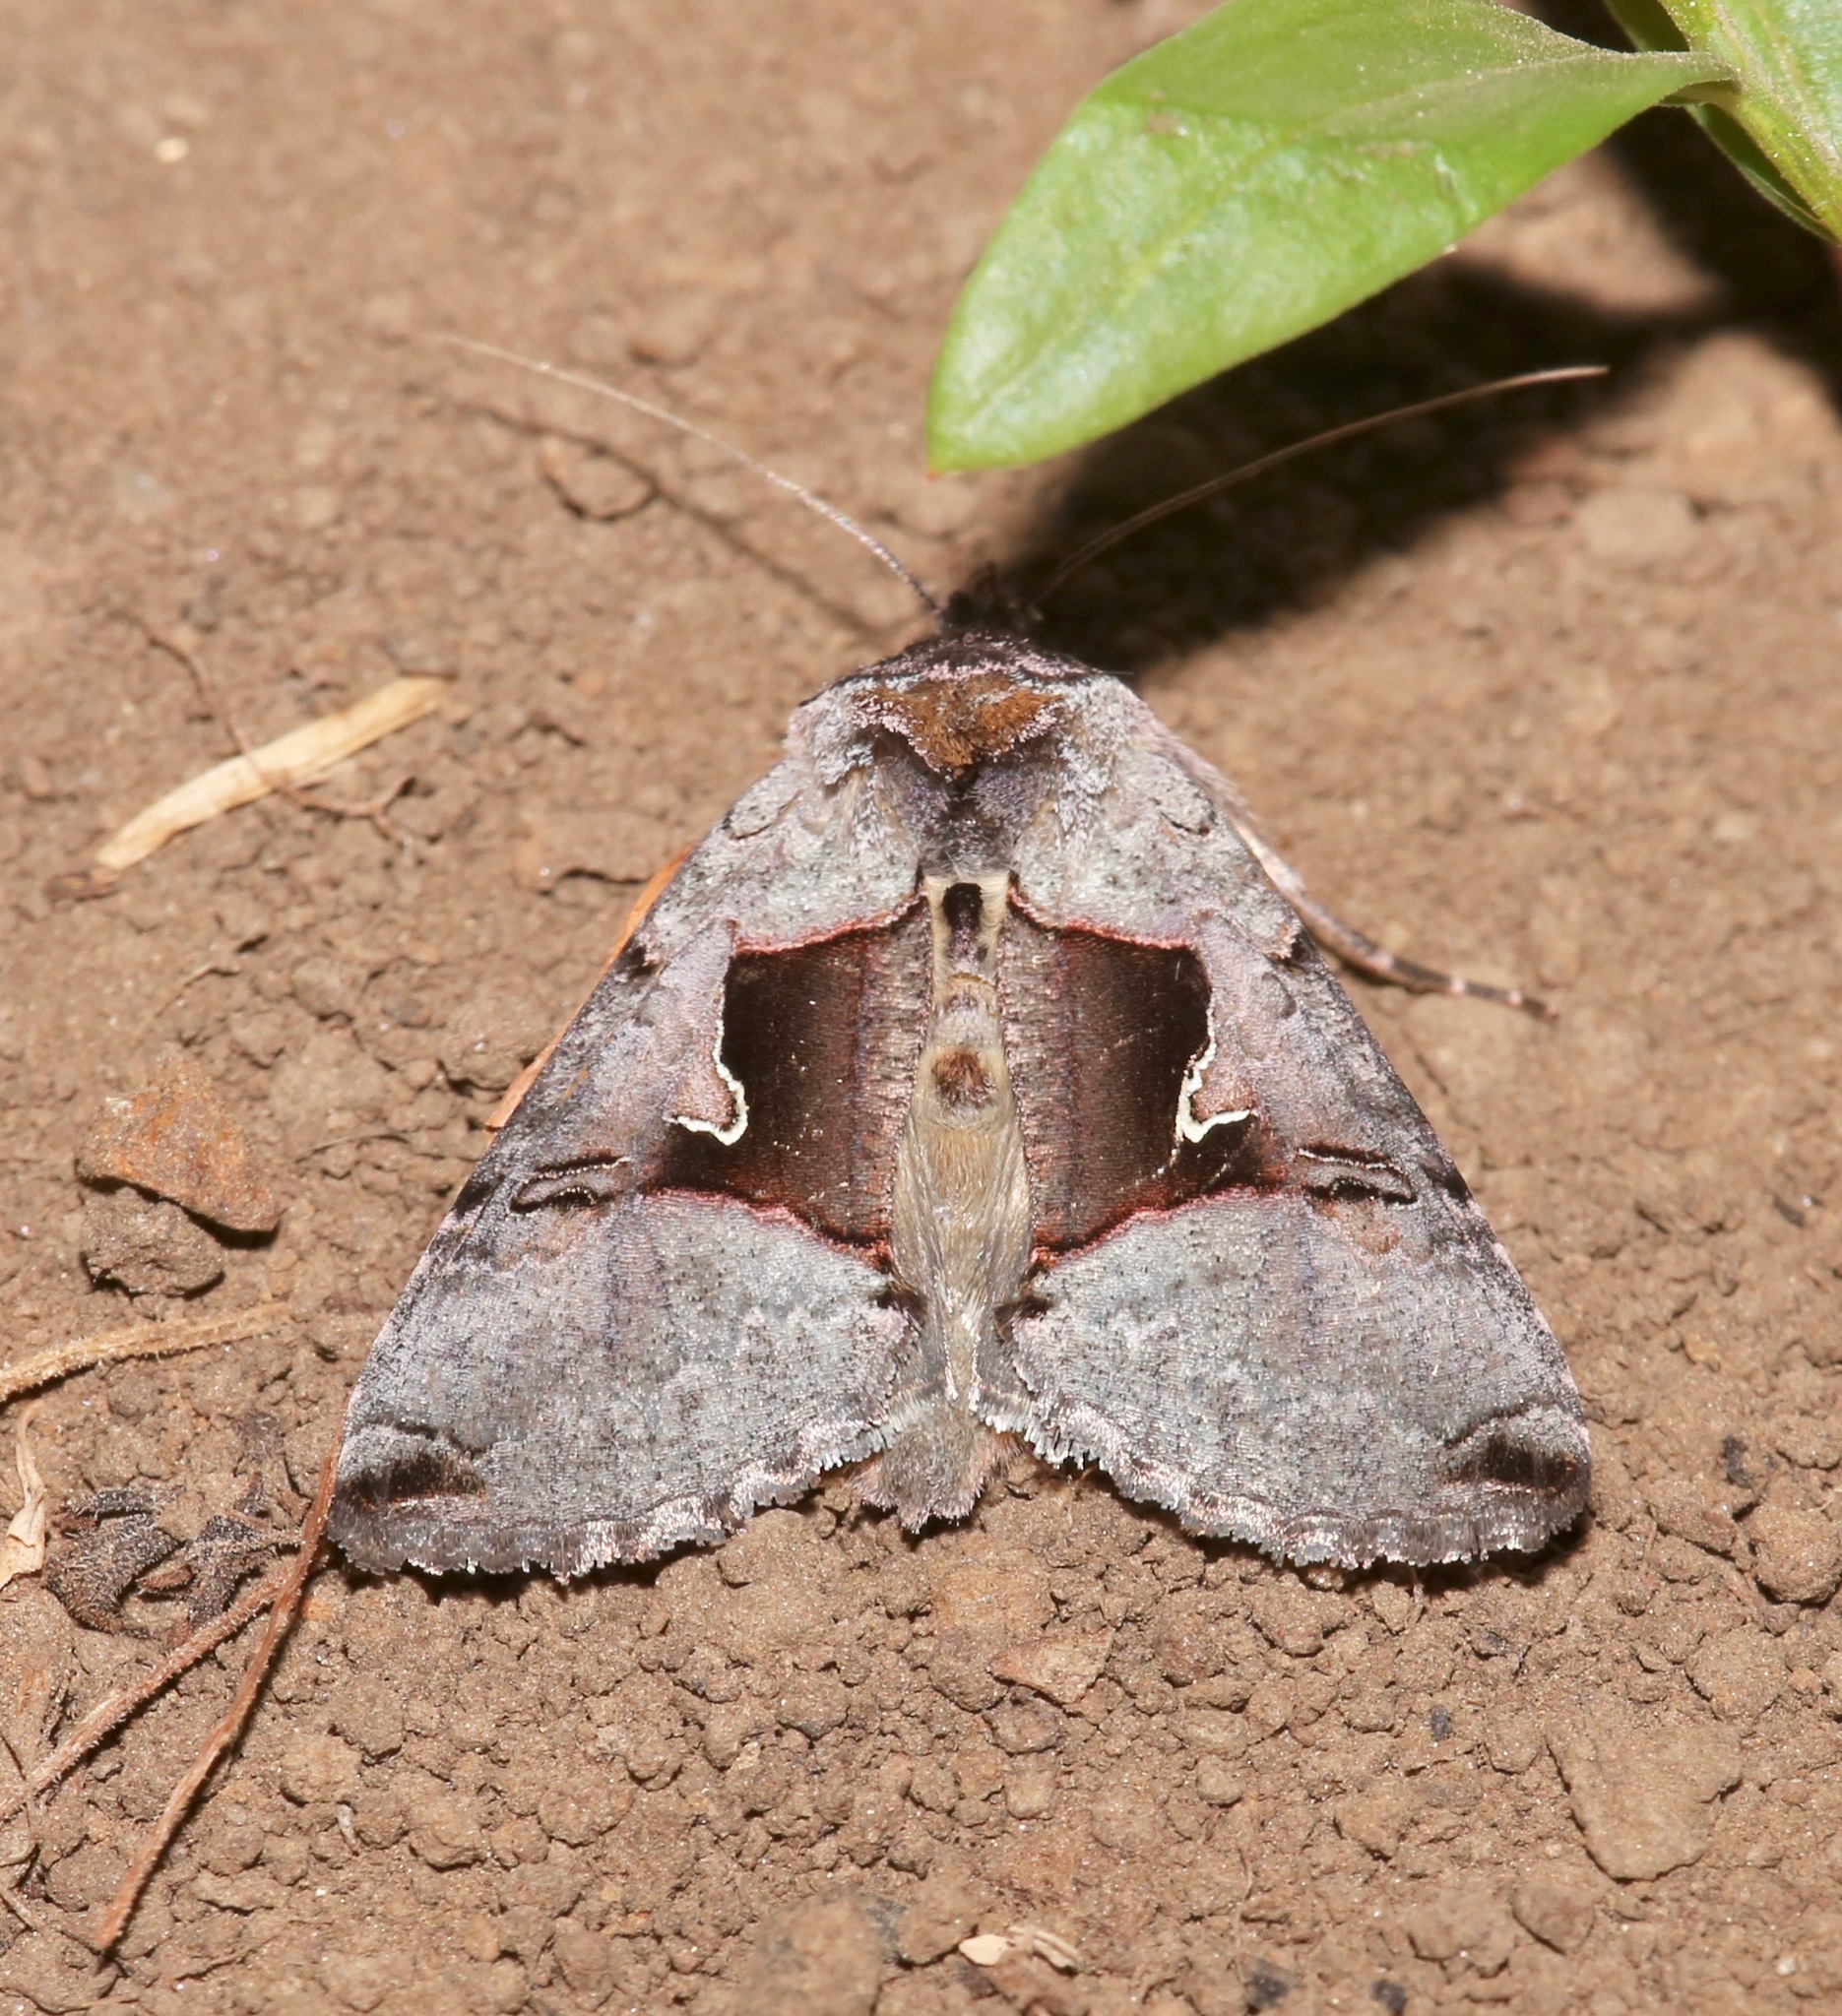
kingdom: Animalia
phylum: Arthropoda
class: Insecta
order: Lepidoptera
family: Noctuidae
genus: Autographa
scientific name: Autographa ampla
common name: Large looper moth
